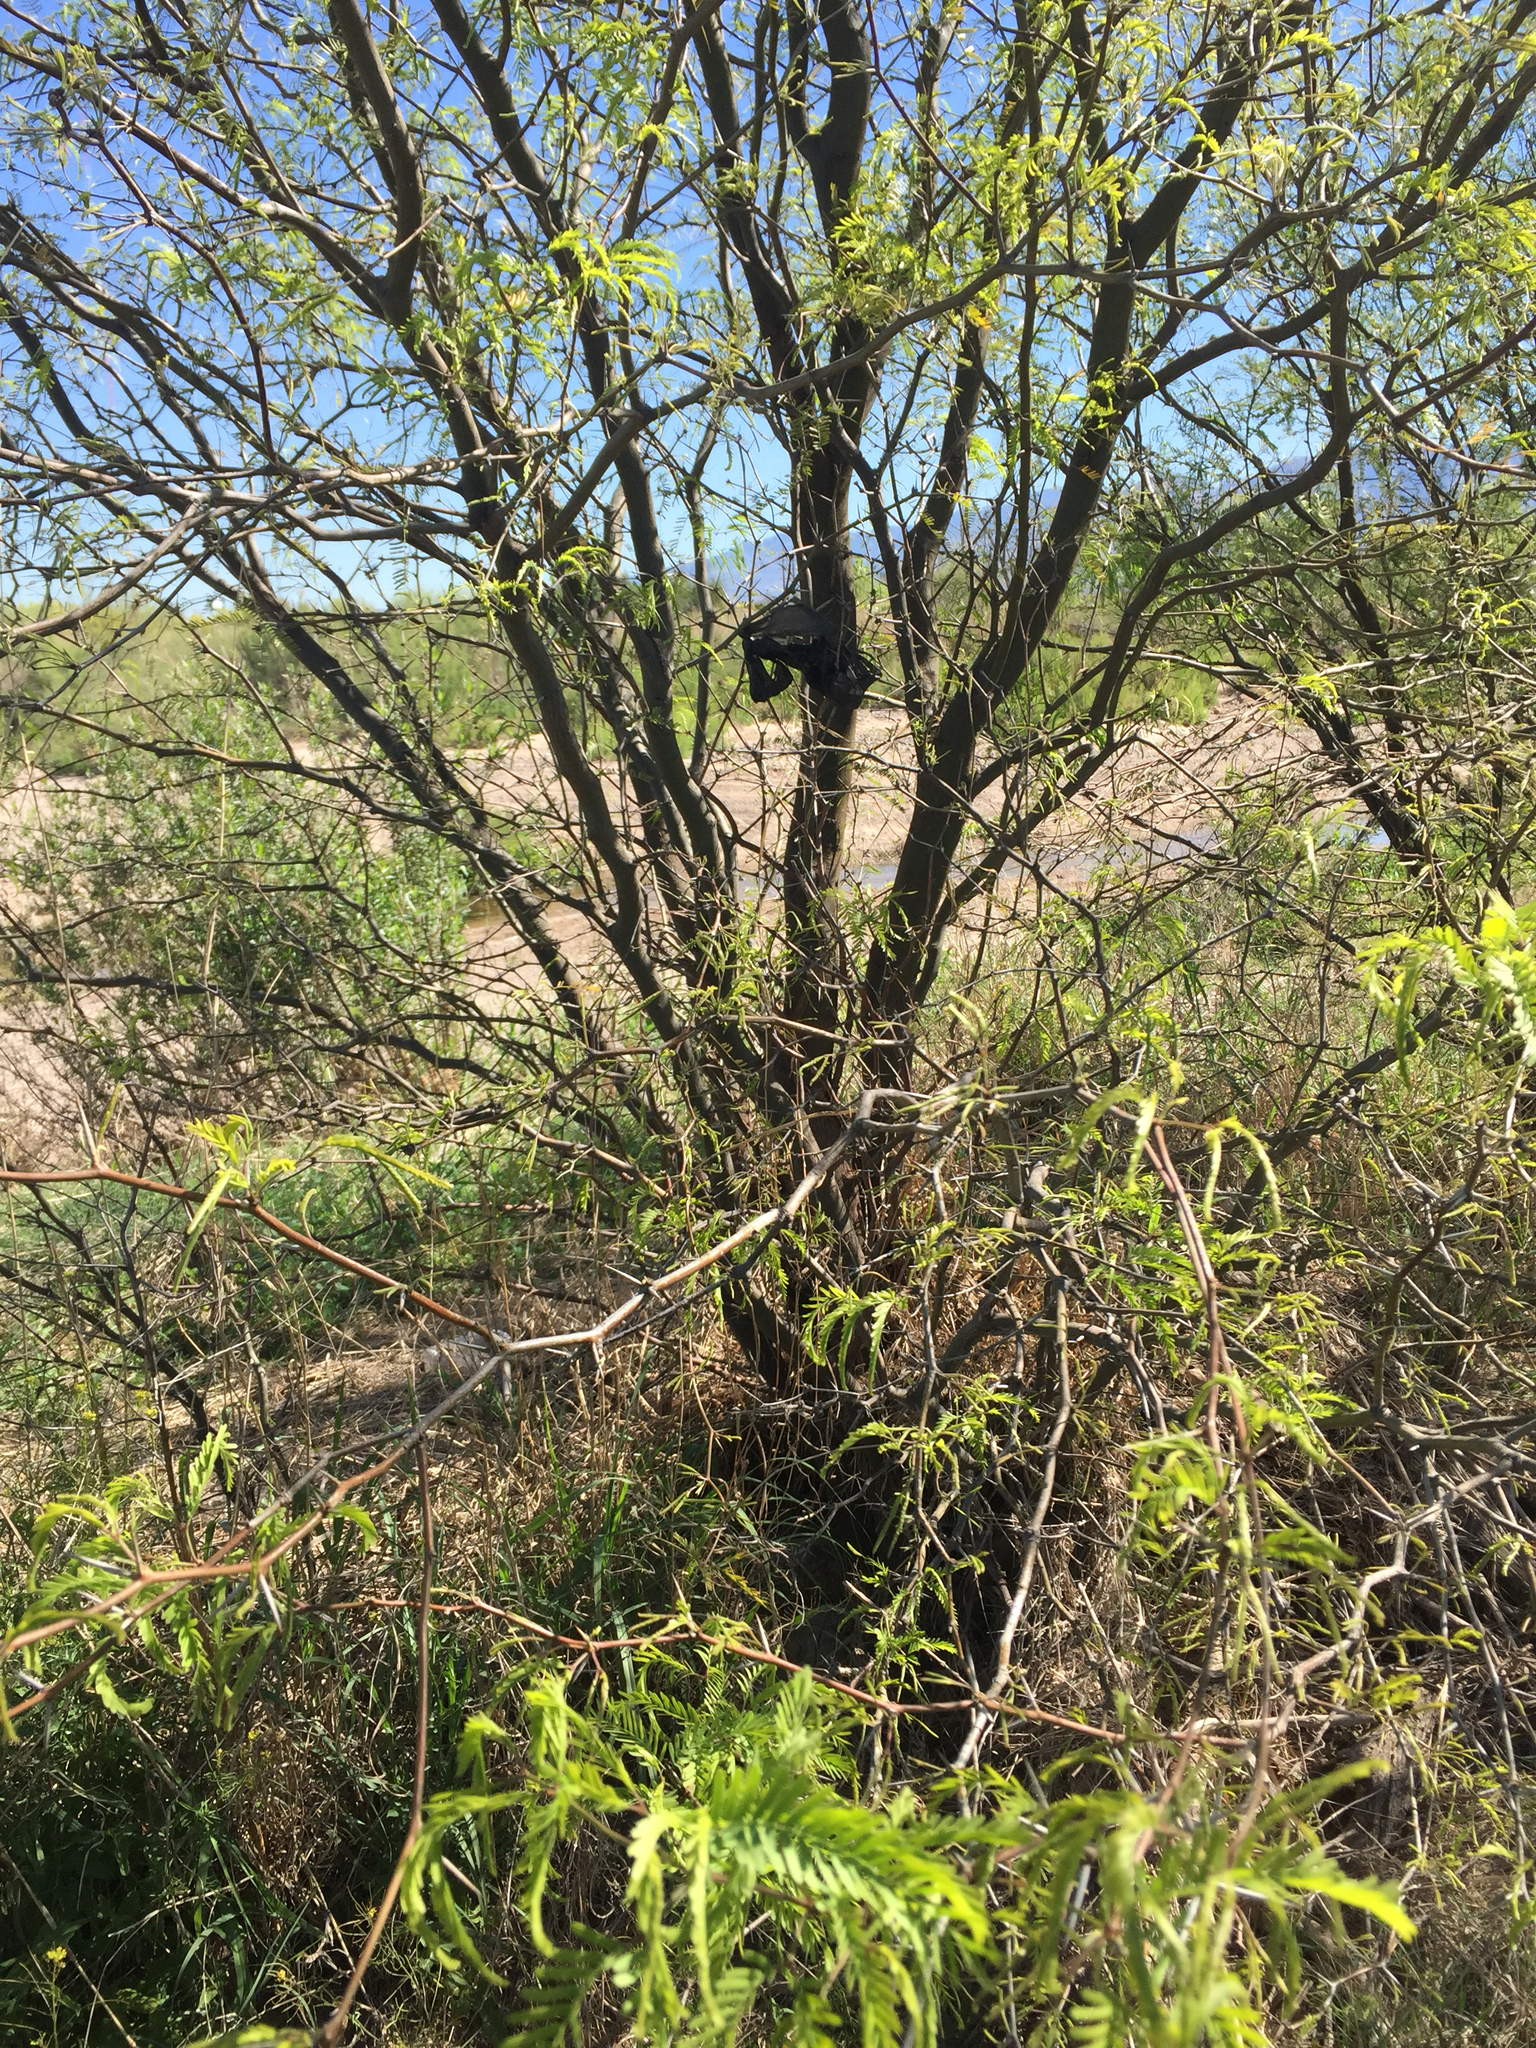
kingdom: Plantae
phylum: Tracheophyta
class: Magnoliopsida
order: Fabales
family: Fabaceae
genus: Prosopis
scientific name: Prosopis glandulosa
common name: Honey mesquite
